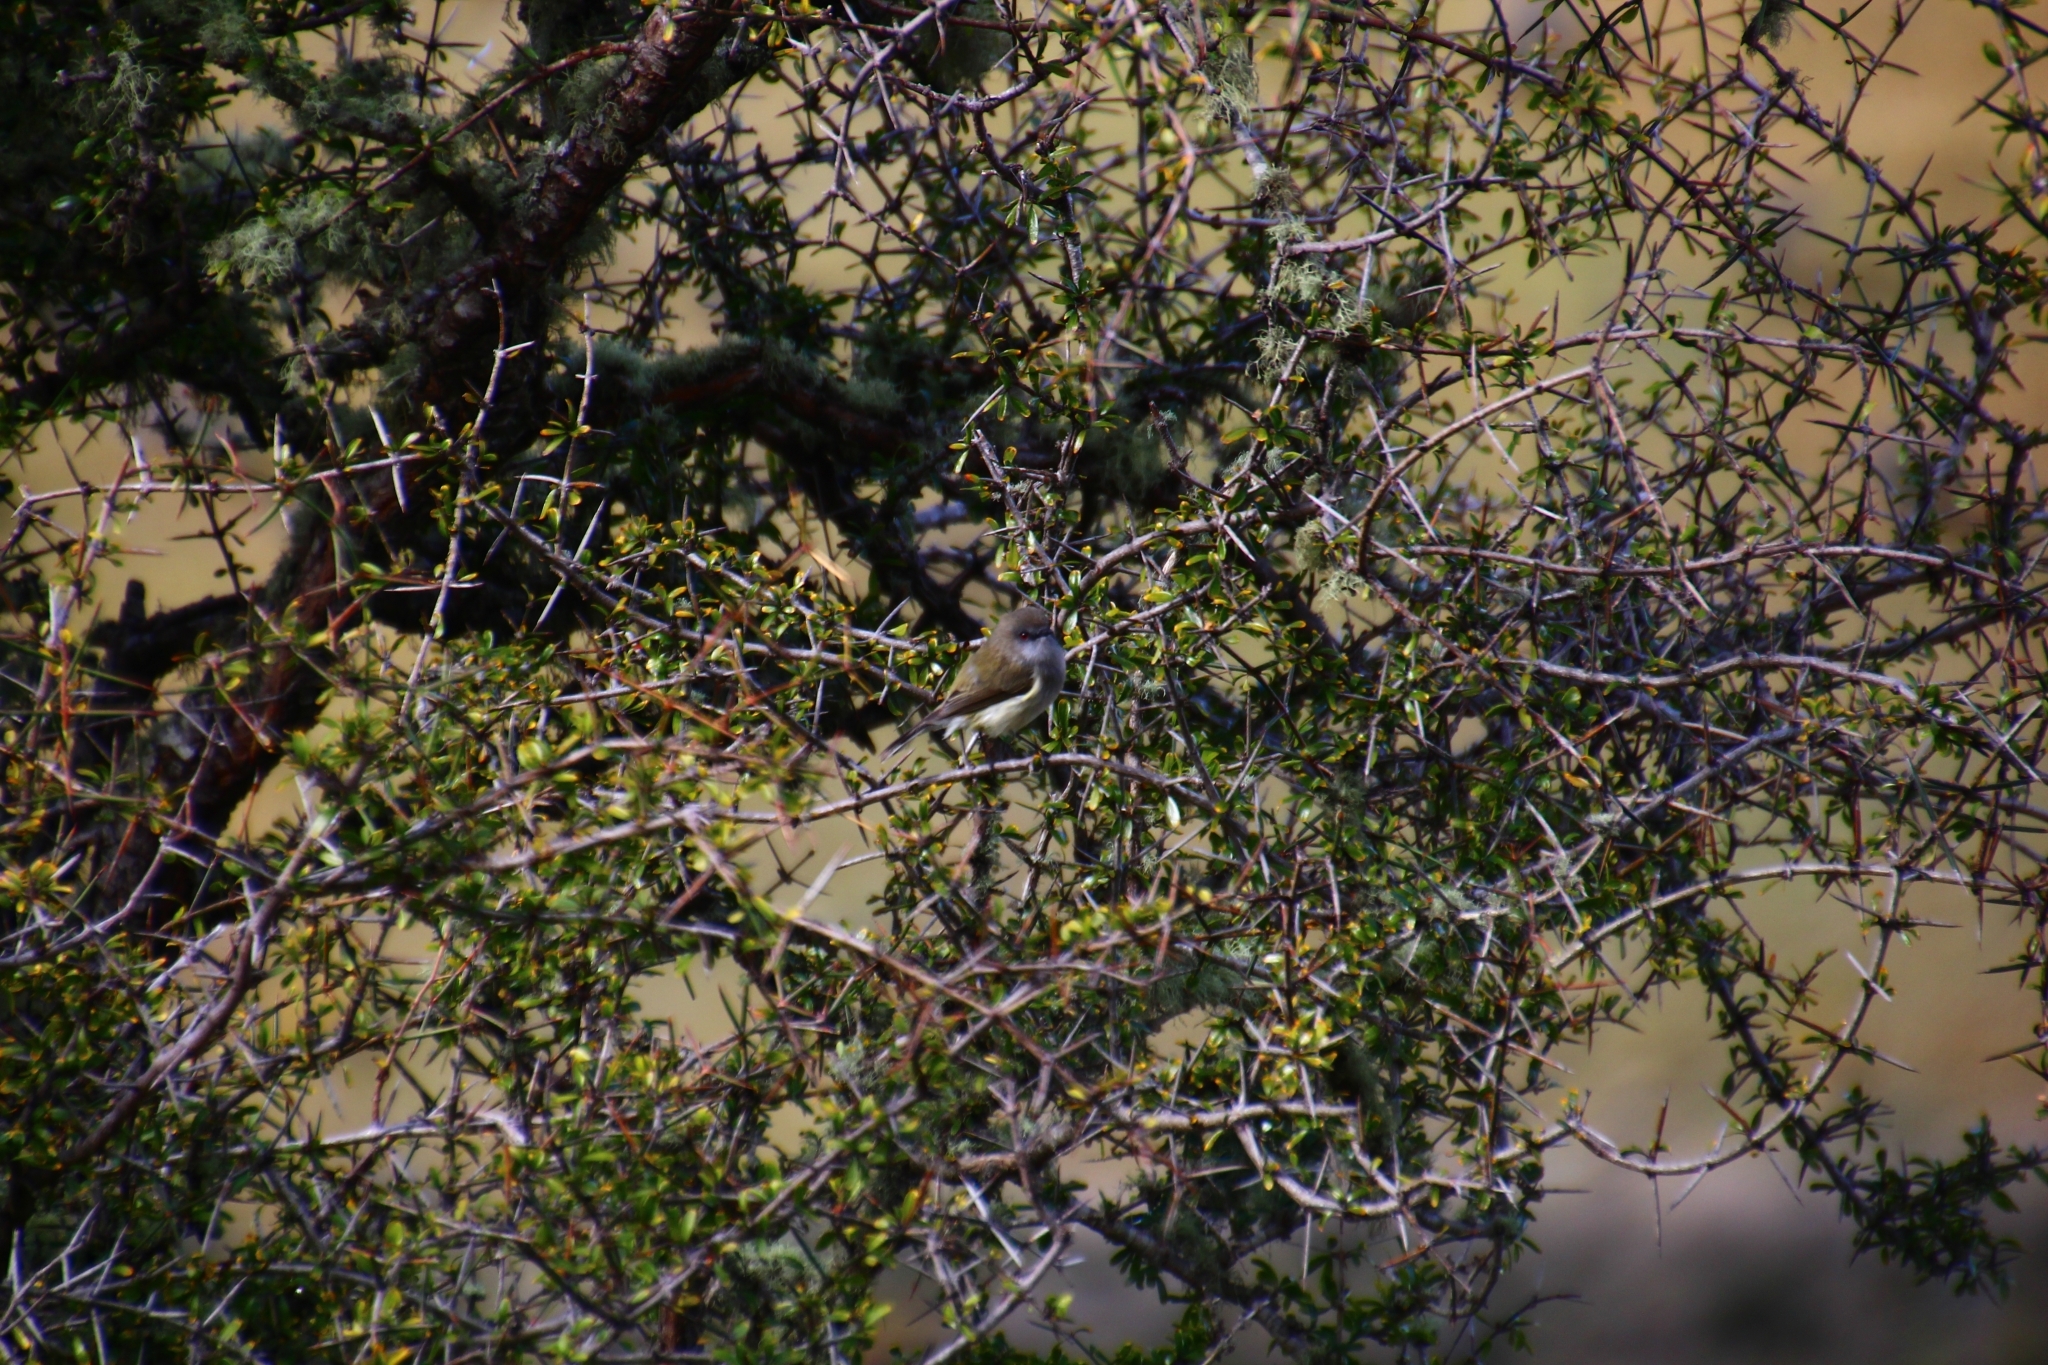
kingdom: Animalia
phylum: Chordata
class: Aves
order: Passeriformes
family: Acanthizidae
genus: Gerygone
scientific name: Gerygone igata
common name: Grey gerygone
